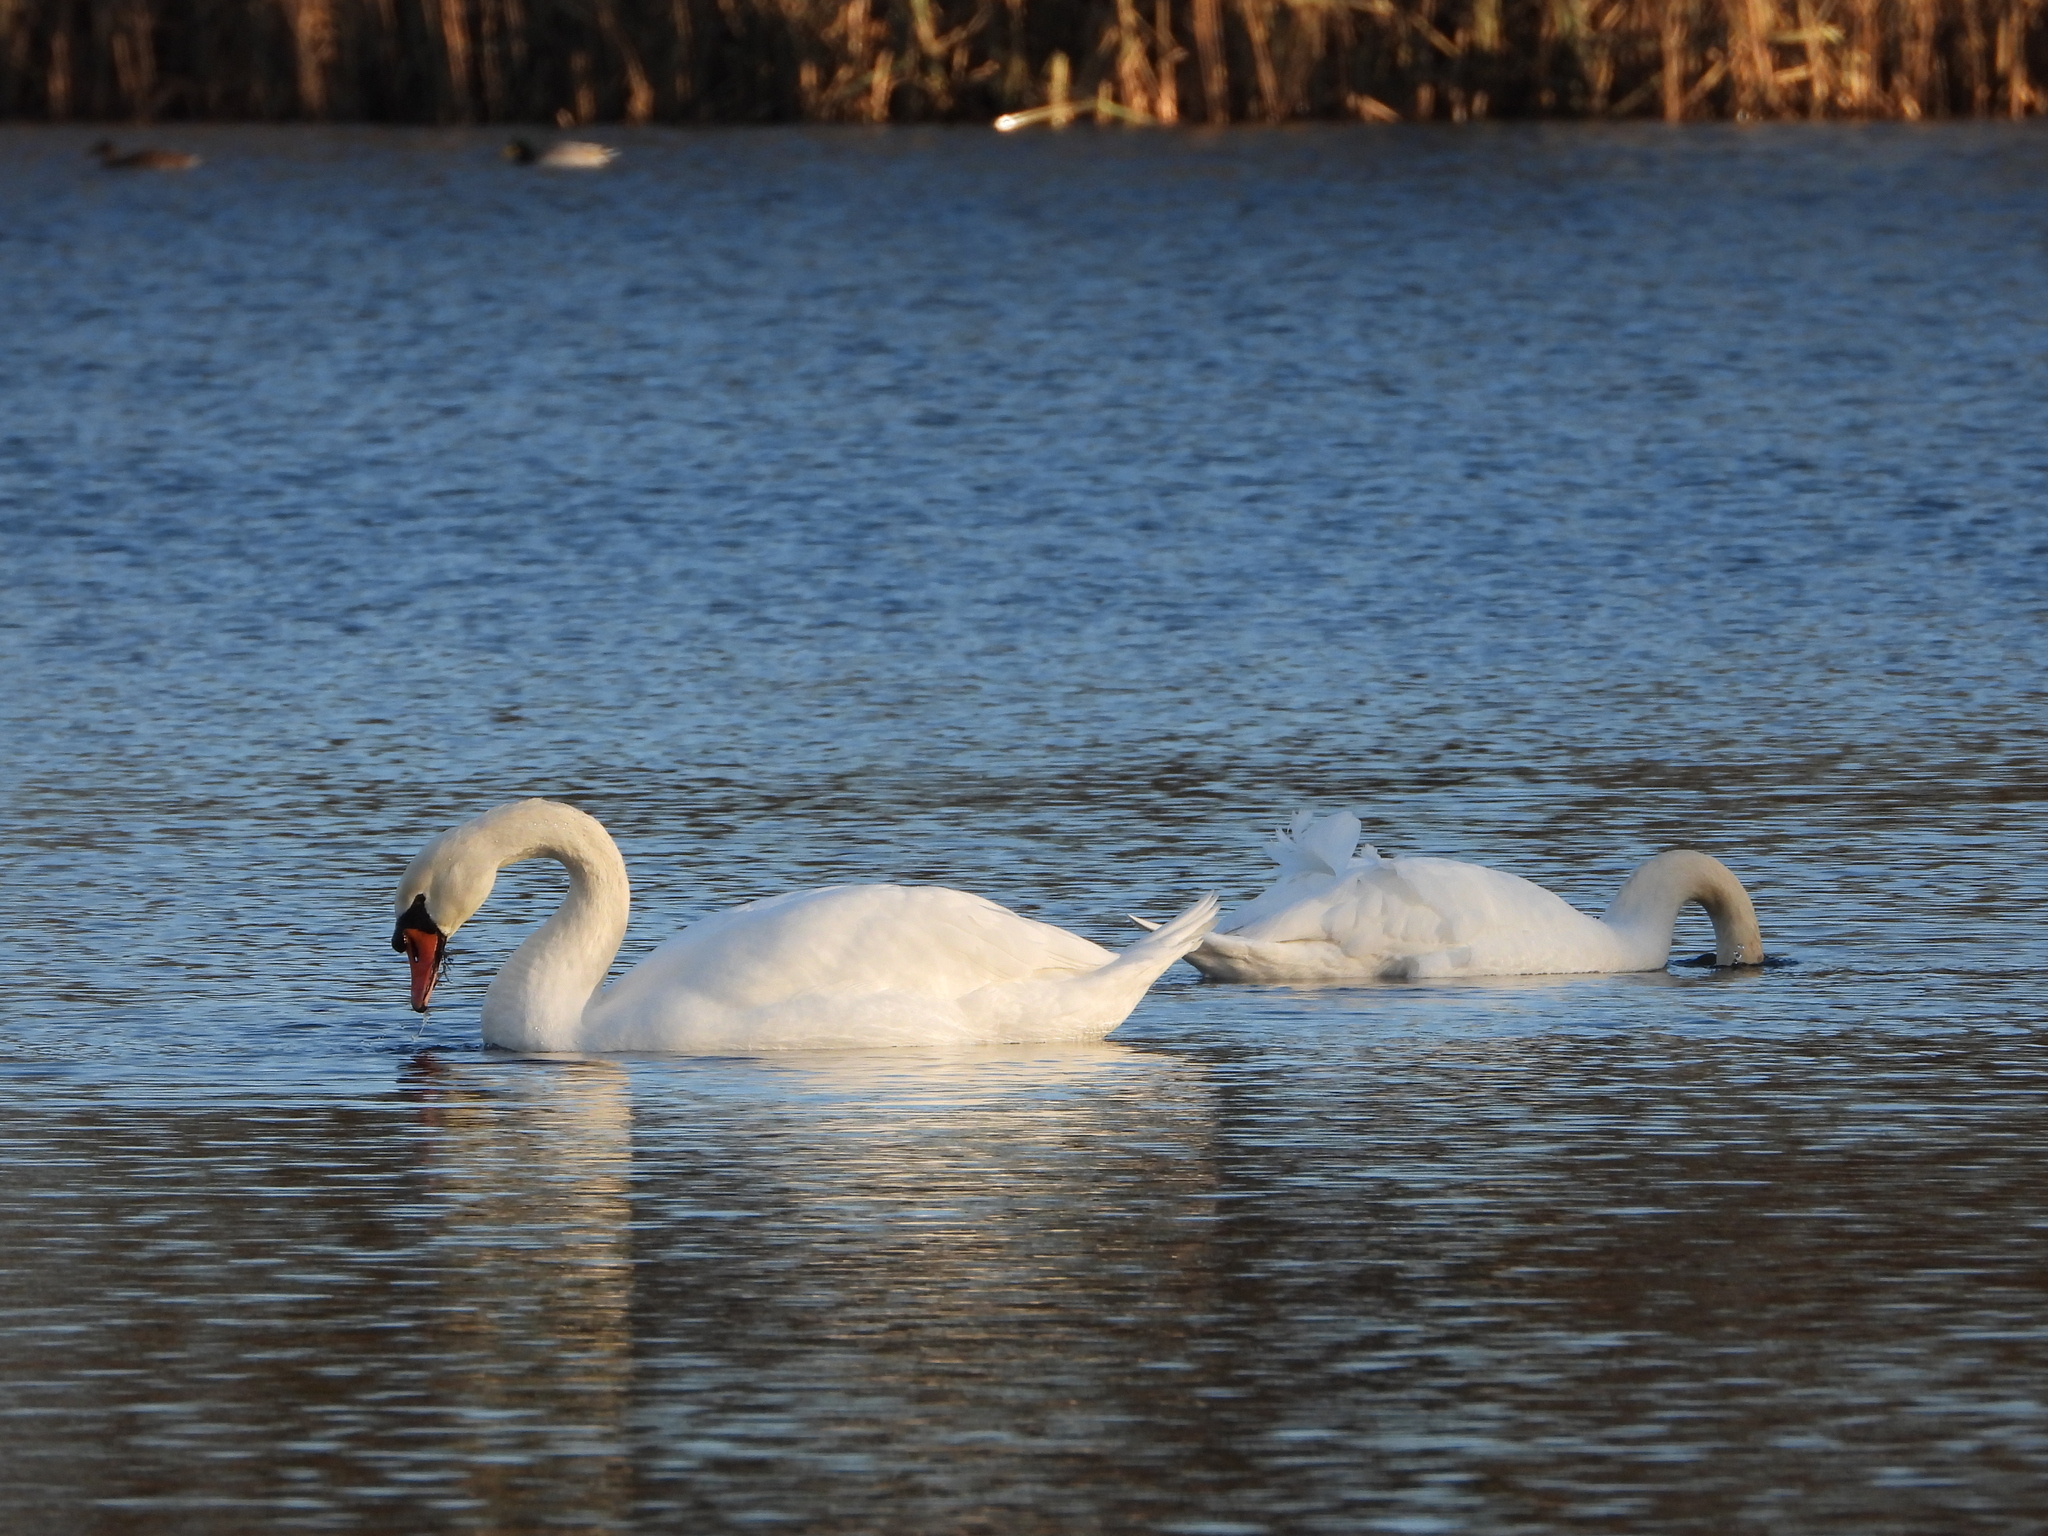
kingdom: Animalia
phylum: Chordata
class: Aves
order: Anseriformes
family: Anatidae
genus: Cygnus
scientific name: Cygnus olor
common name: Mute swan
